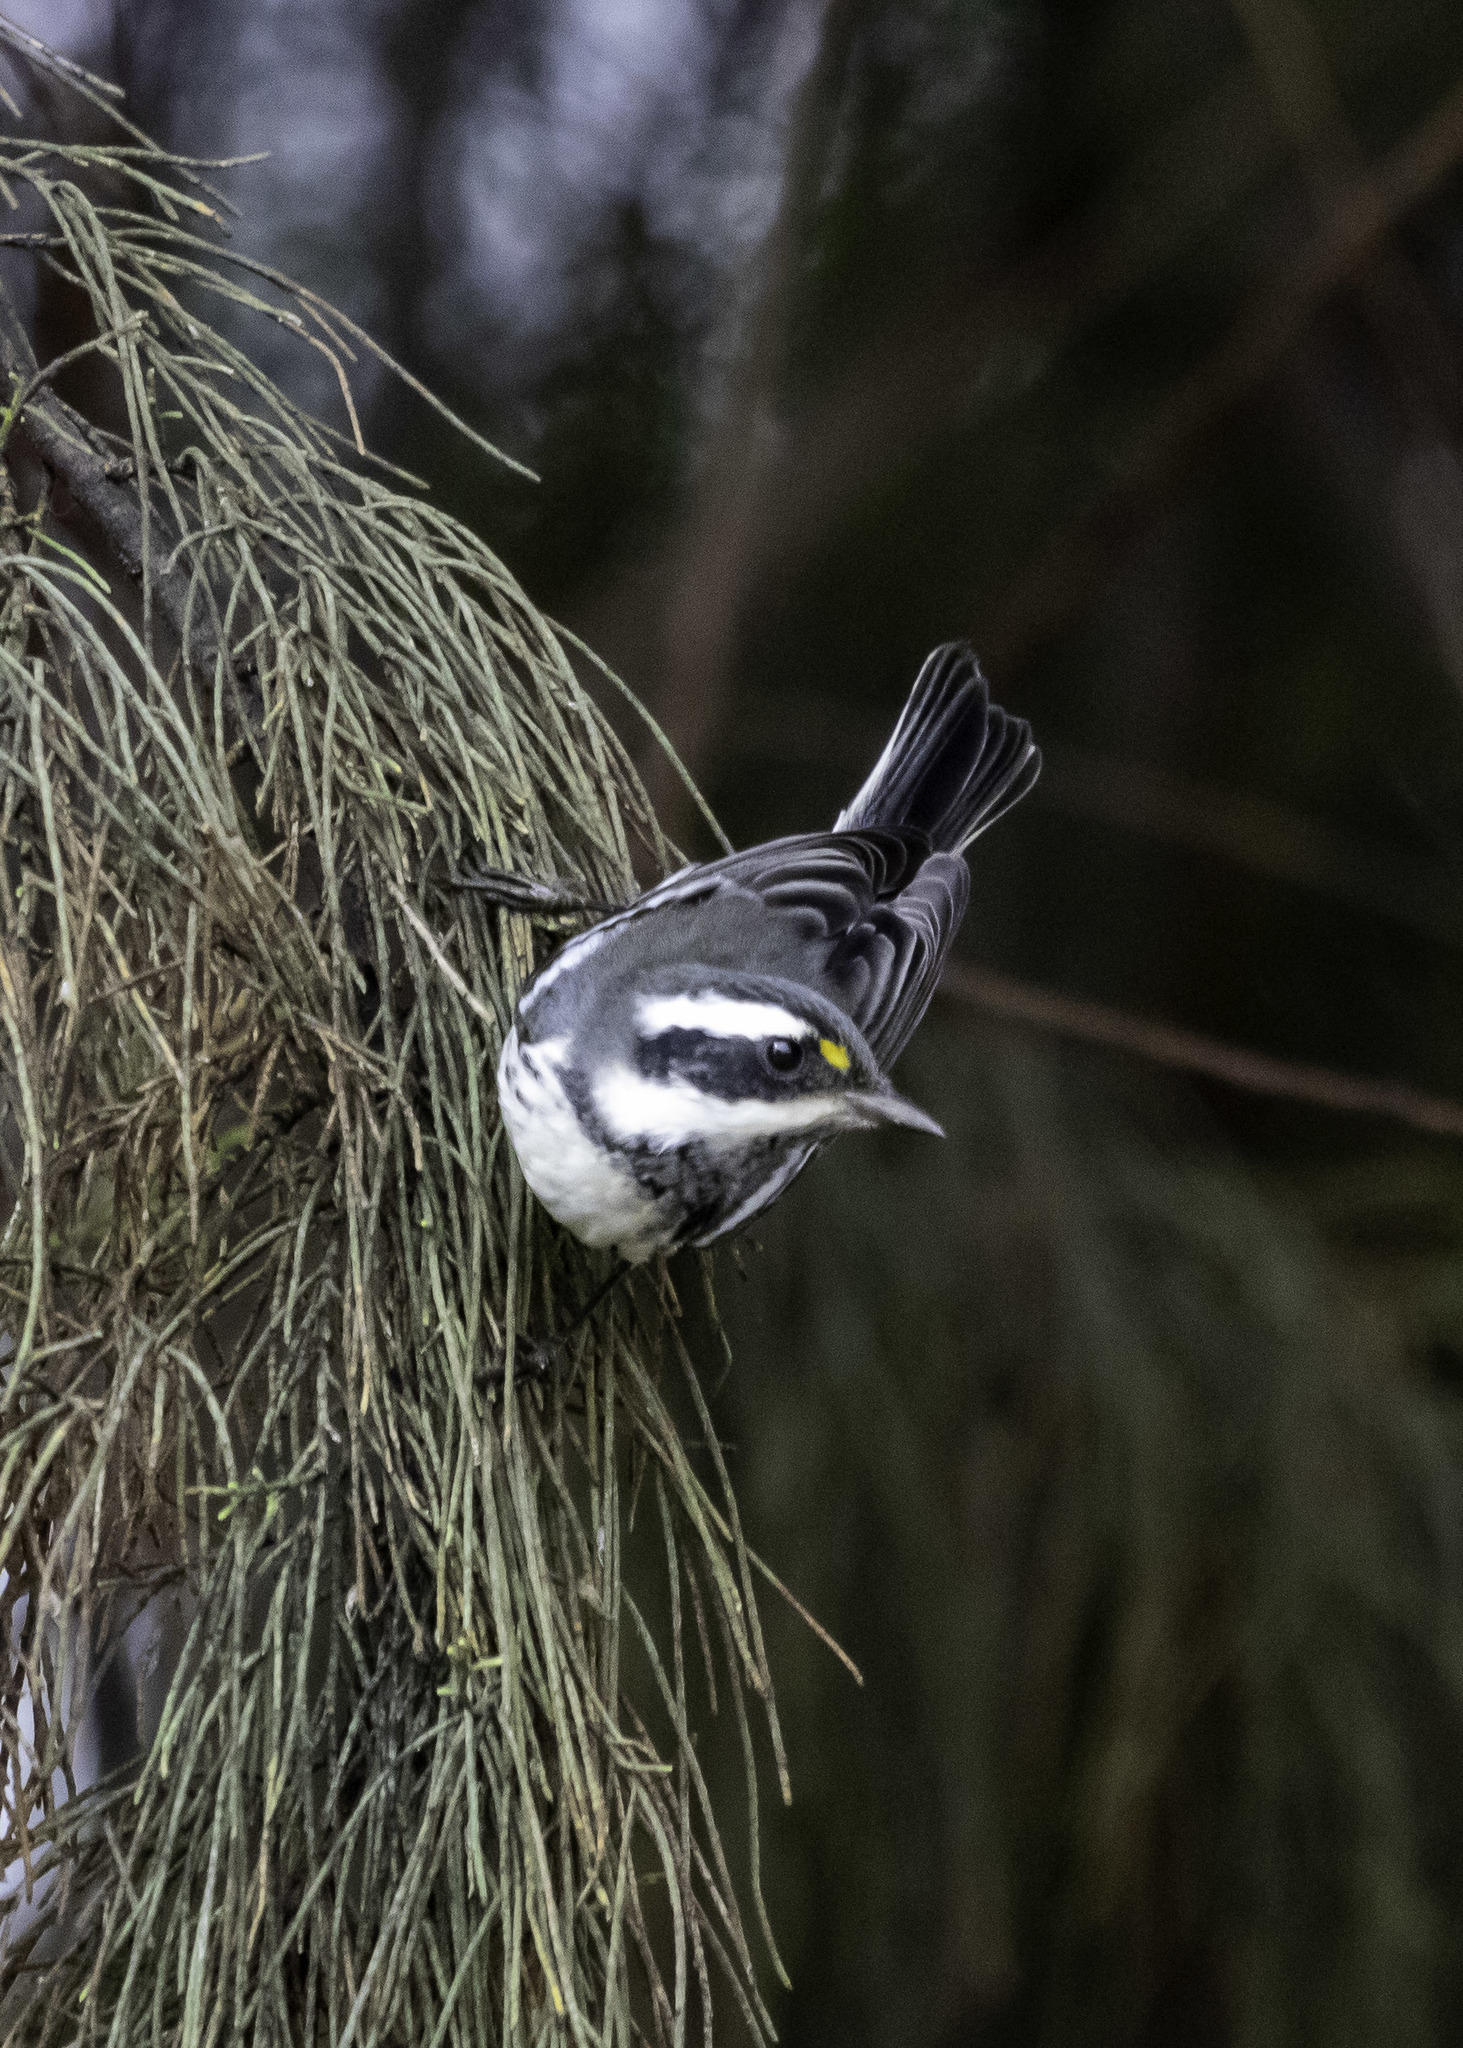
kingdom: Animalia
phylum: Chordata
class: Aves
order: Passeriformes
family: Parulidae
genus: Setophaga
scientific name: Setophaga nigrescens
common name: Black-throated gray warbler
